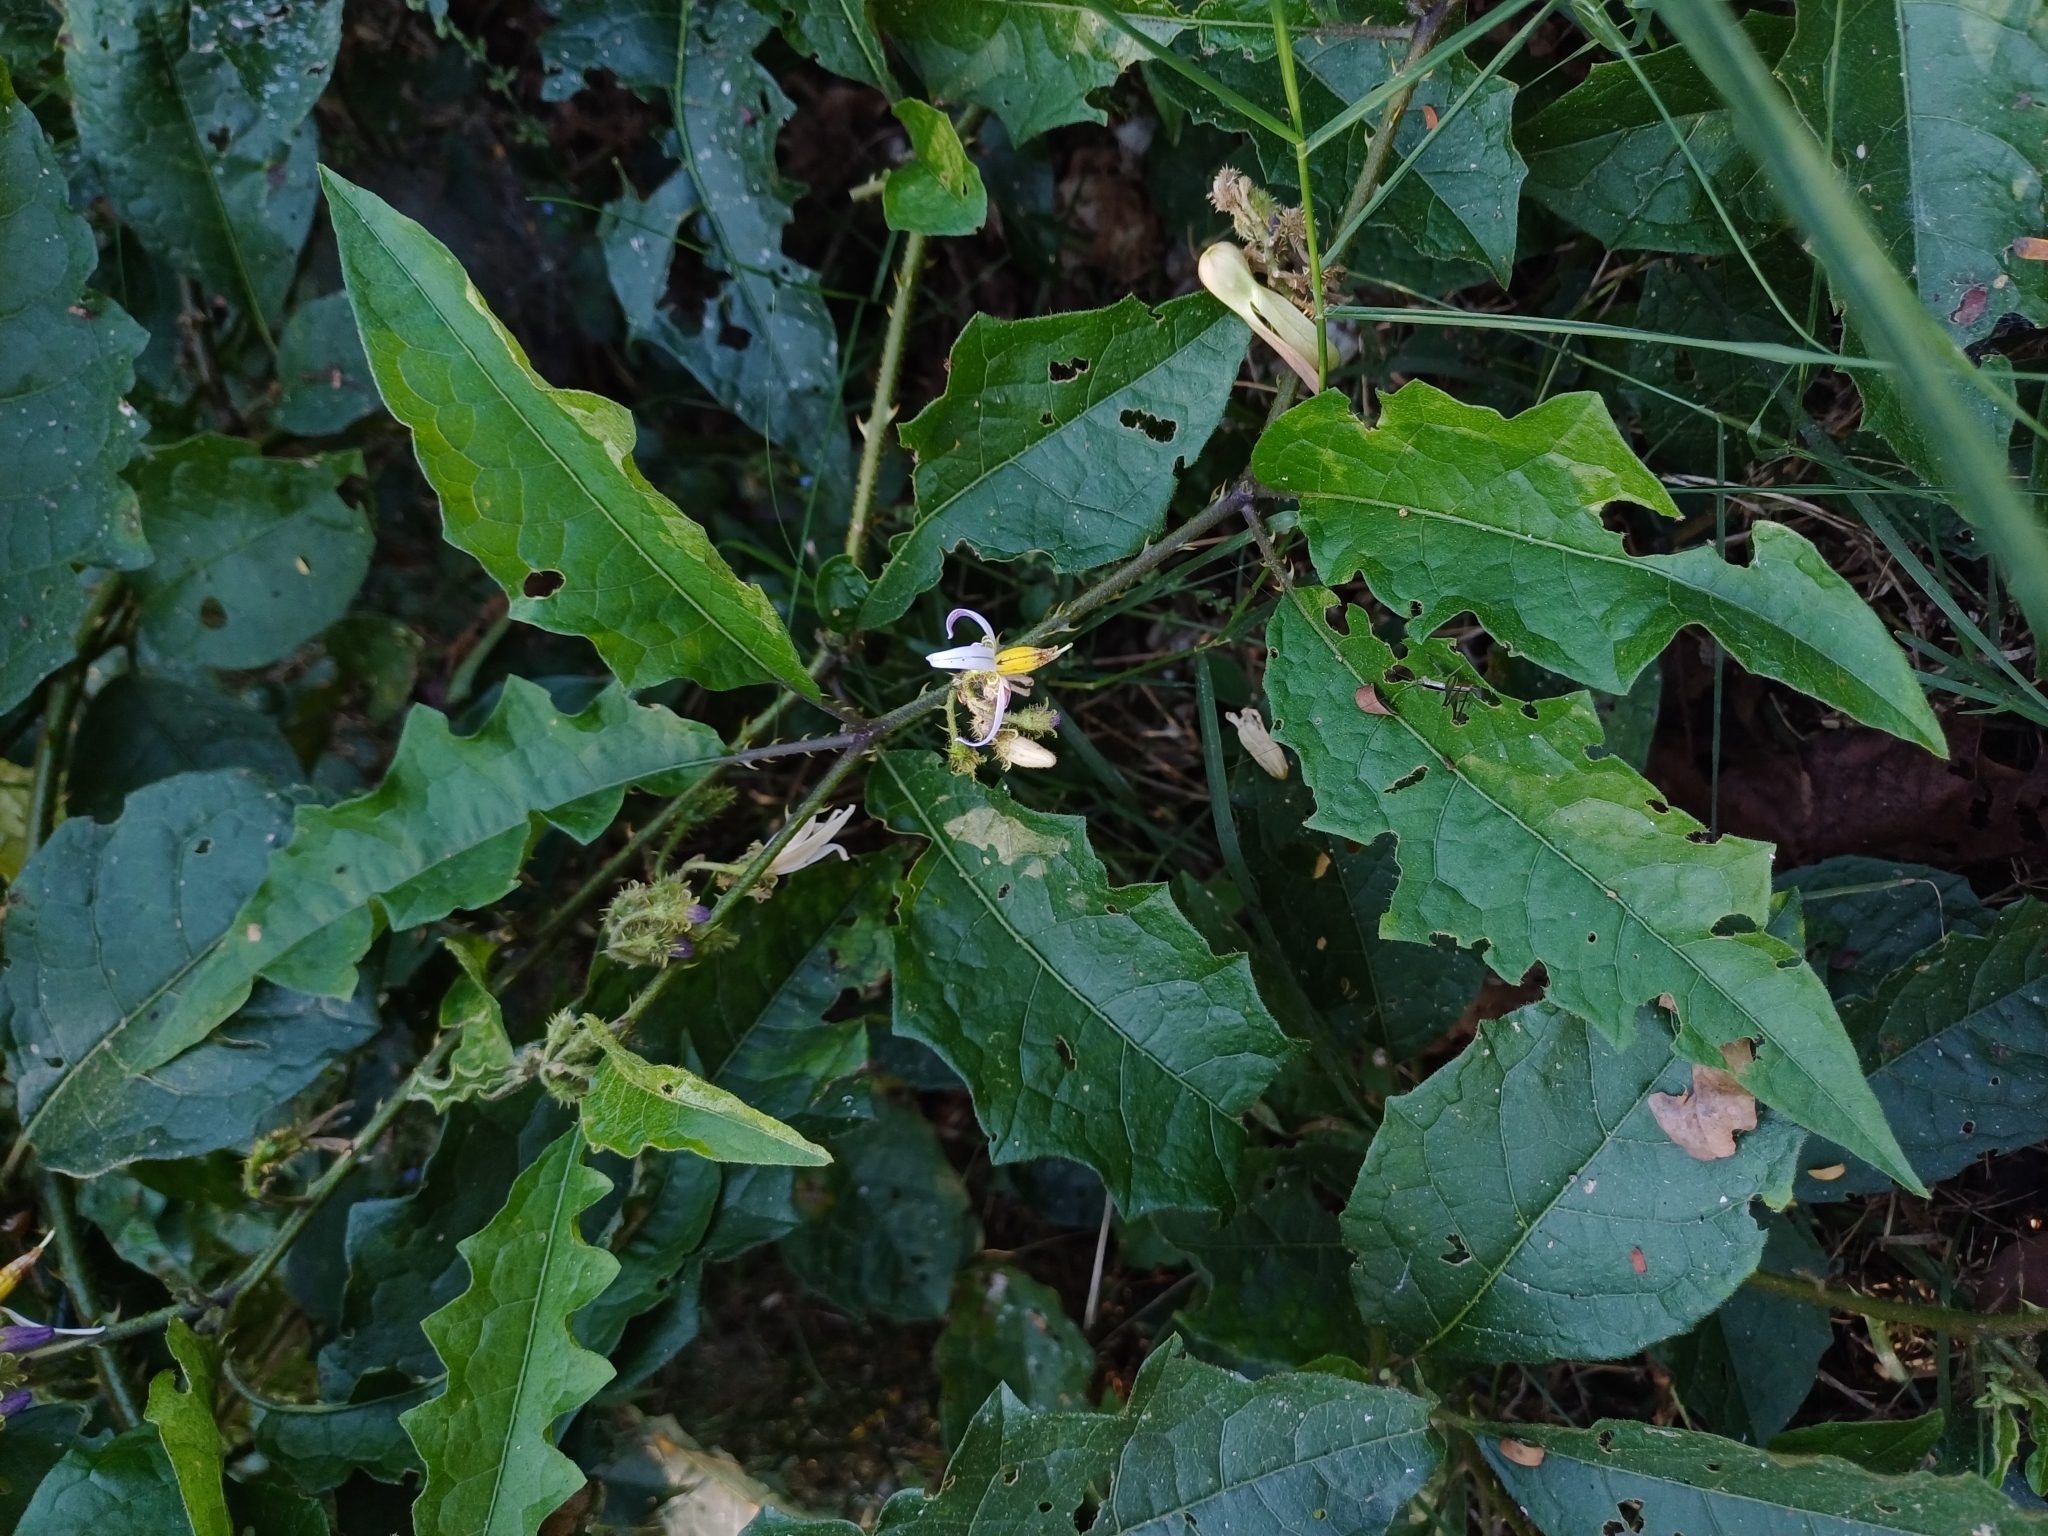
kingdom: Plantae
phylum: Tracheophyta
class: Magnoliopsida
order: Solanales
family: Solanaceae
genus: Solanum
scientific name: Solanum volubile
